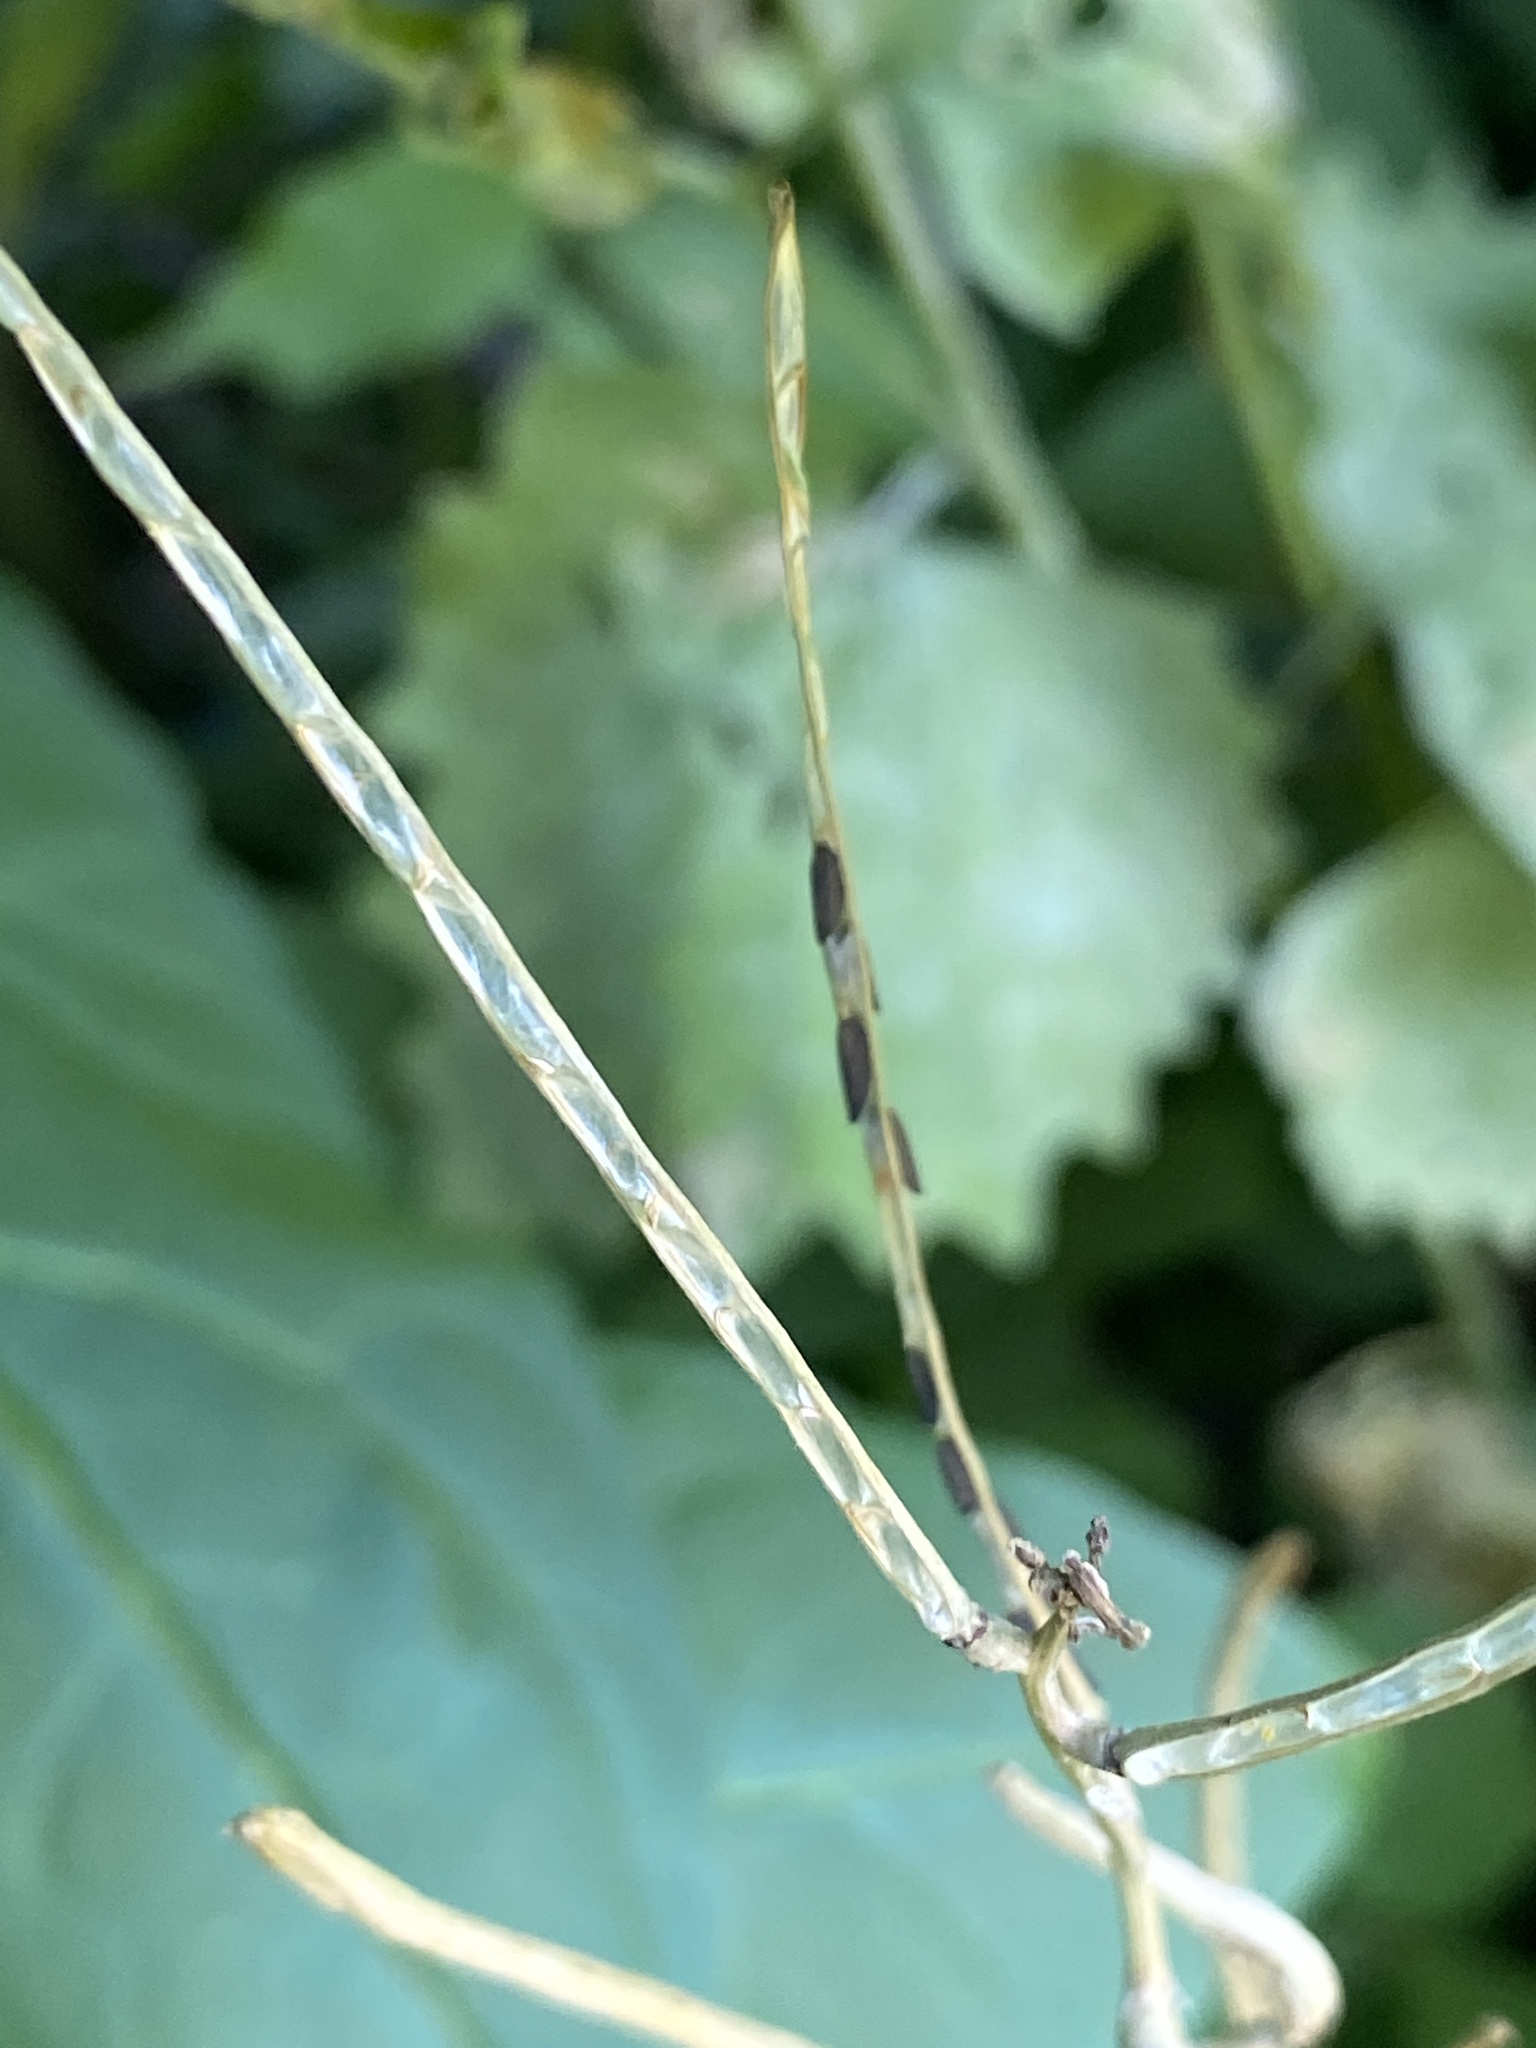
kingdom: Plantae
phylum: Tracheophyta
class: Magnoliopsida
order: Brassicales
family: Brassicaceae
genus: Alliaria
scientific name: Alliaria petiolata
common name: Garlic mustard
